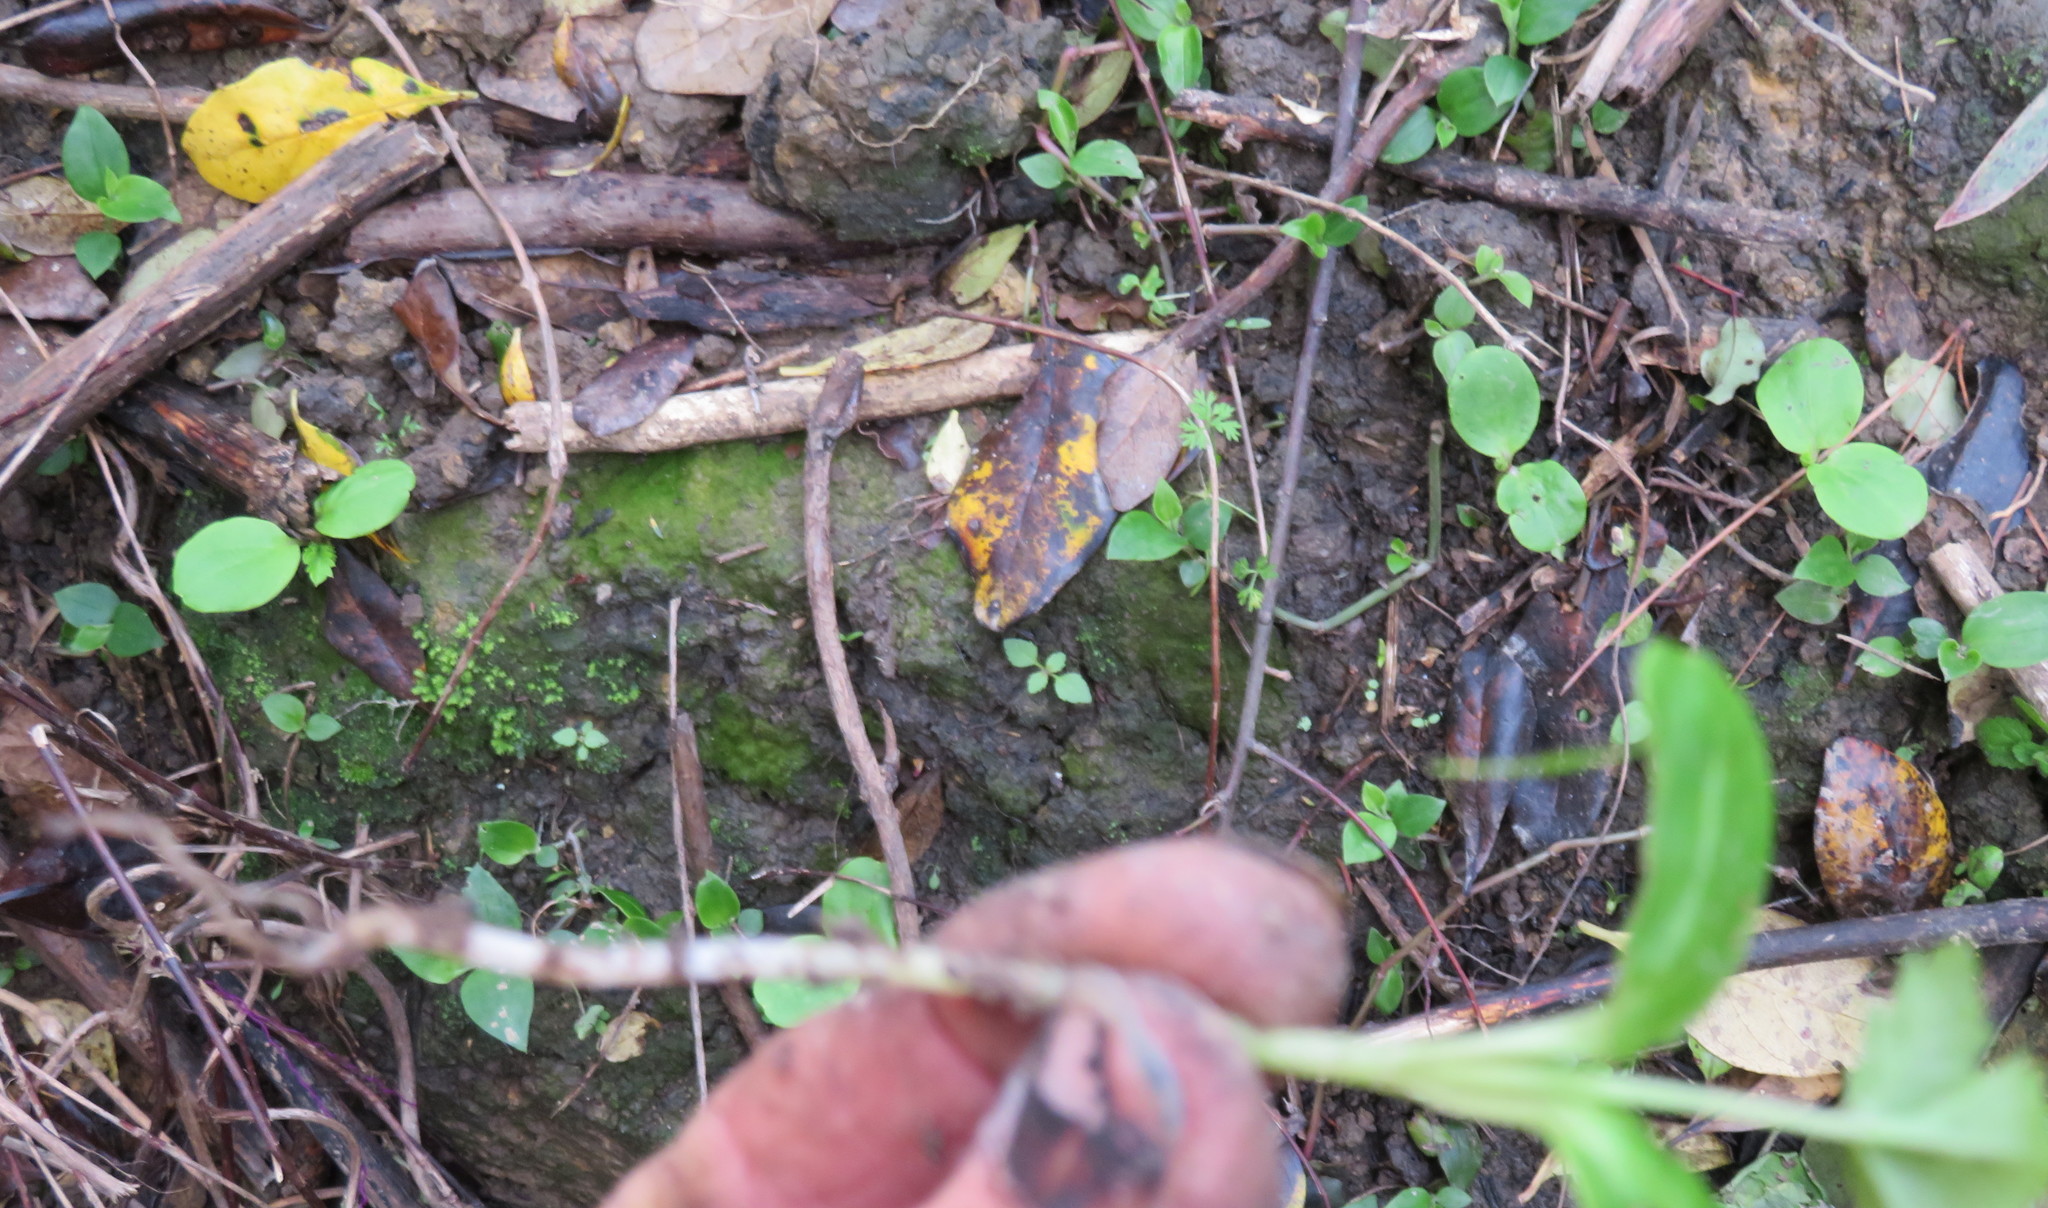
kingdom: Plantae
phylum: Tracheophyta
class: Magnoliopsida
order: Geraniales
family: Melianthaceae
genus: Melianthus
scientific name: Melianthus major
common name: Honey-flower
